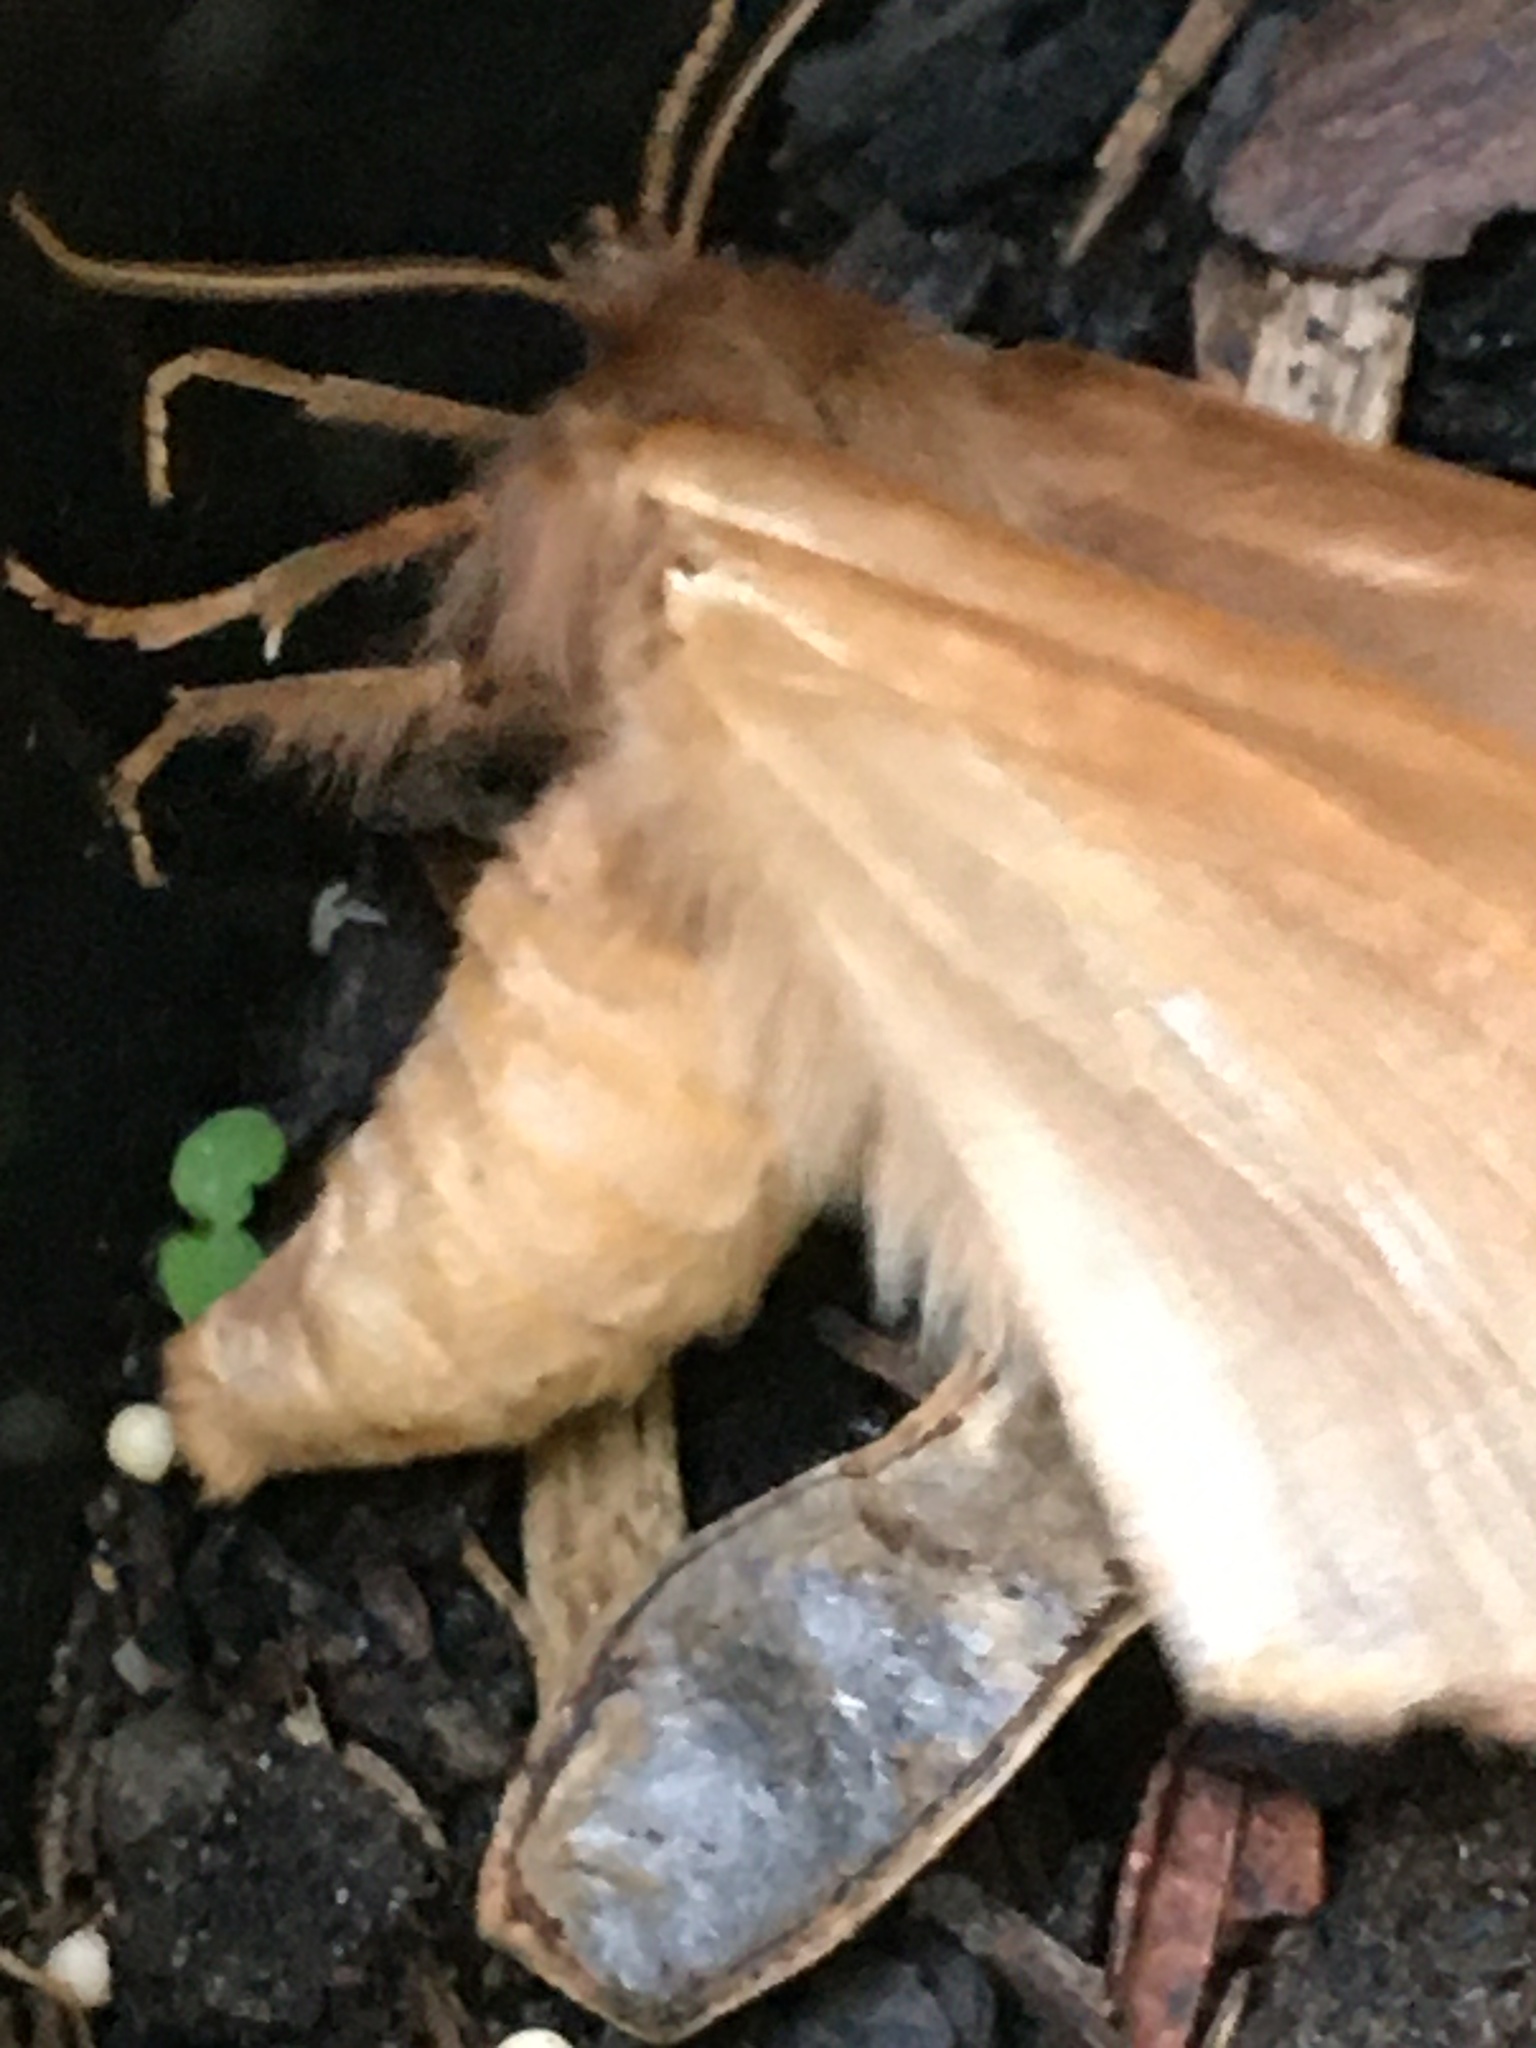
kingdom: Animalia
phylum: Arthropoda
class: Insecta
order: Lepidoptera
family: Eupterotidae
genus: Phyllalia
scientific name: Phyllalia patens
